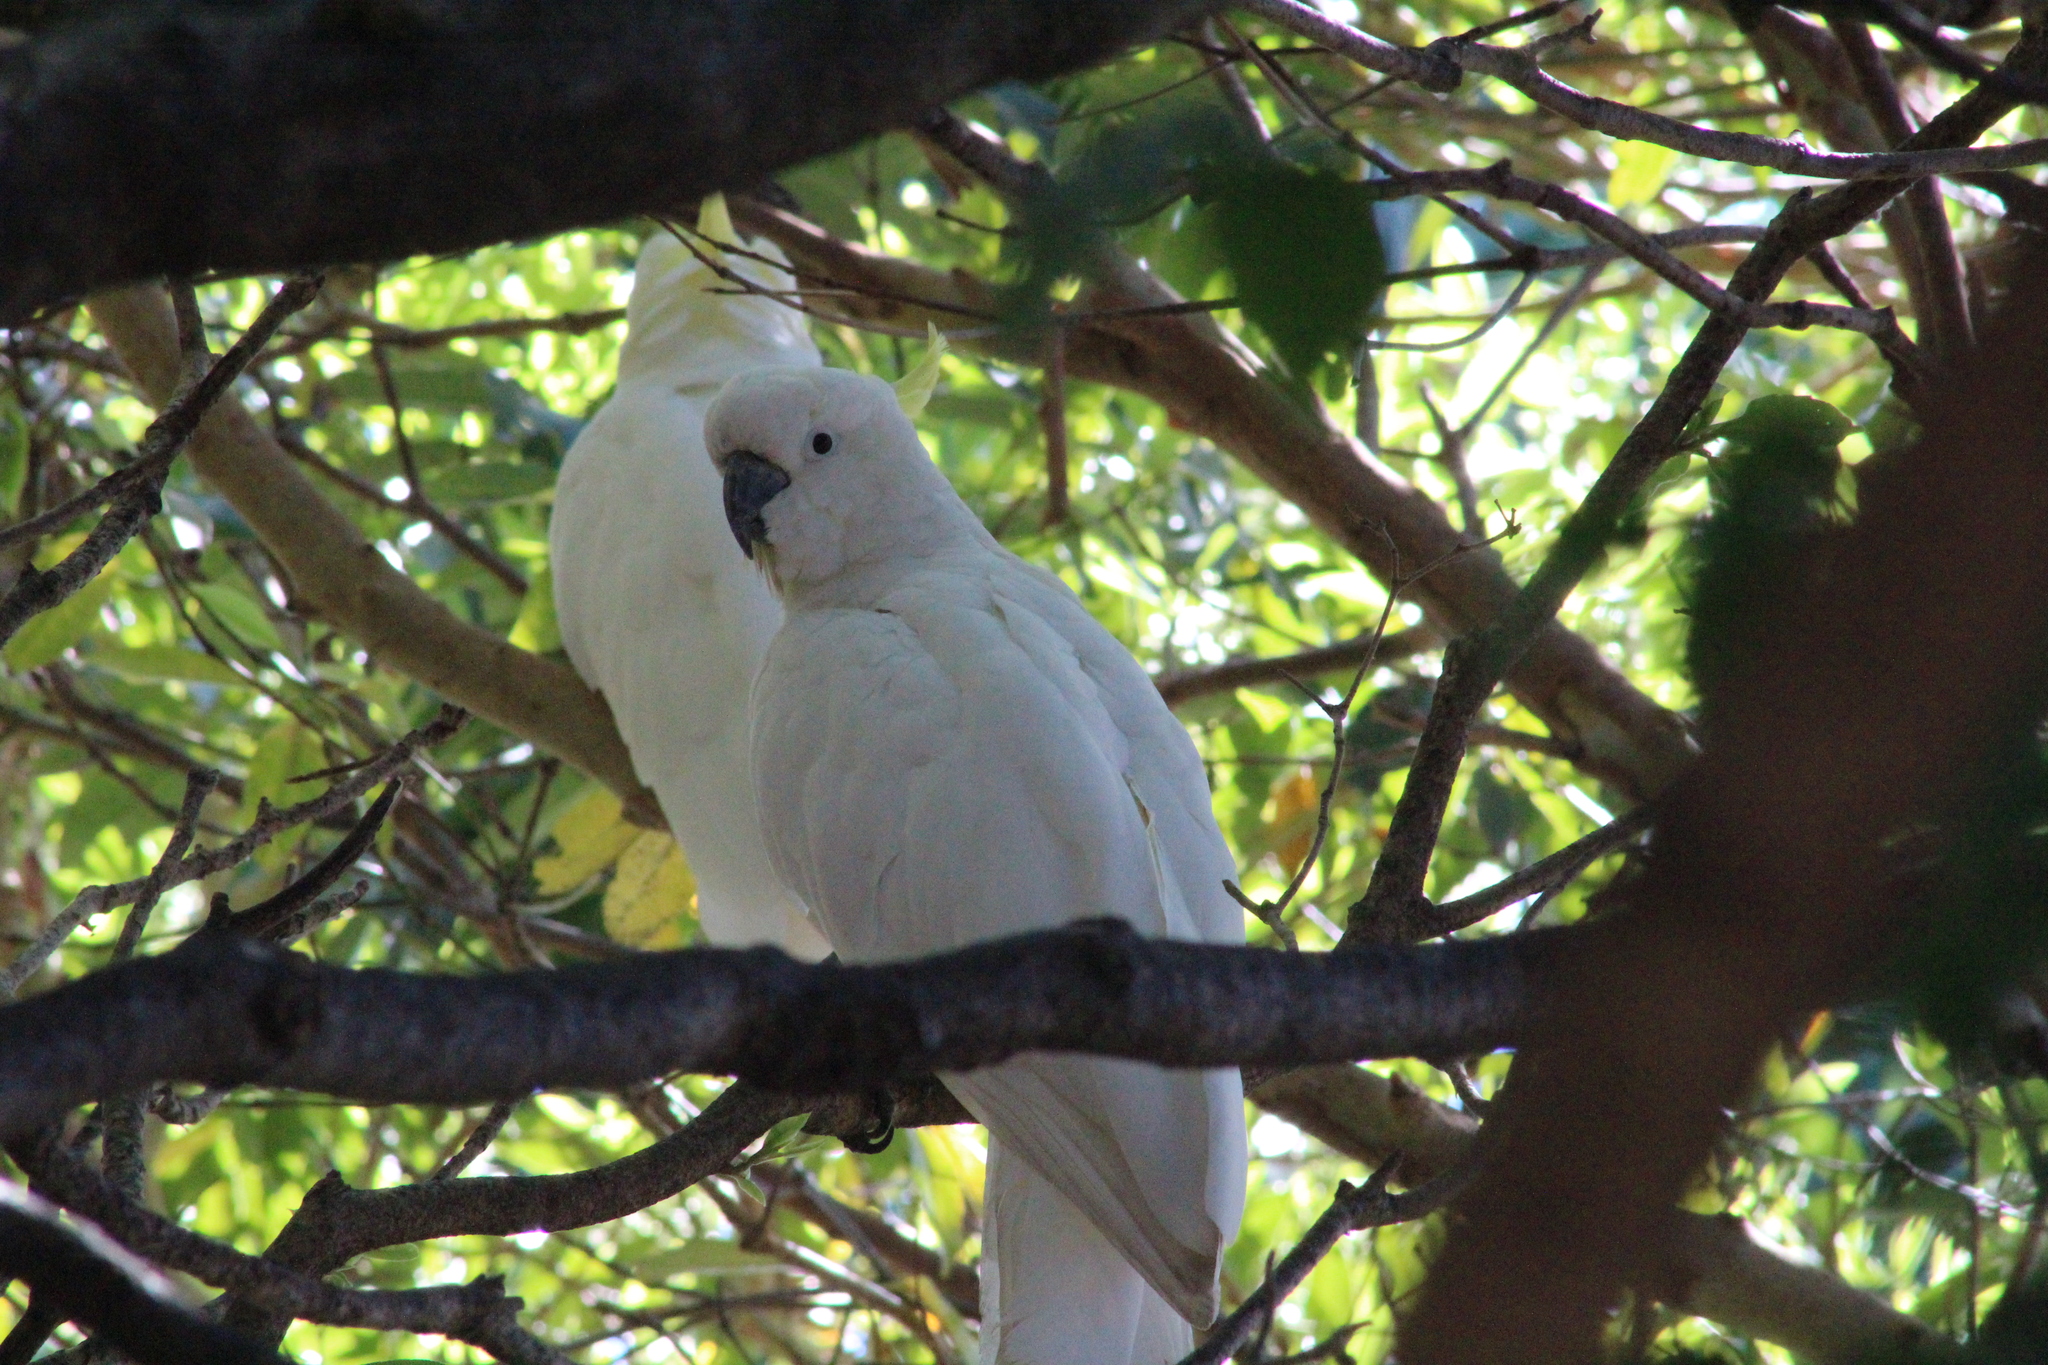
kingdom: Animalia
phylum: Chordata
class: Aves
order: Psittaciformes
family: Psittacidae
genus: Cacatua
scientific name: Cacatua galerita
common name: Sulphur-crested cockatoo
